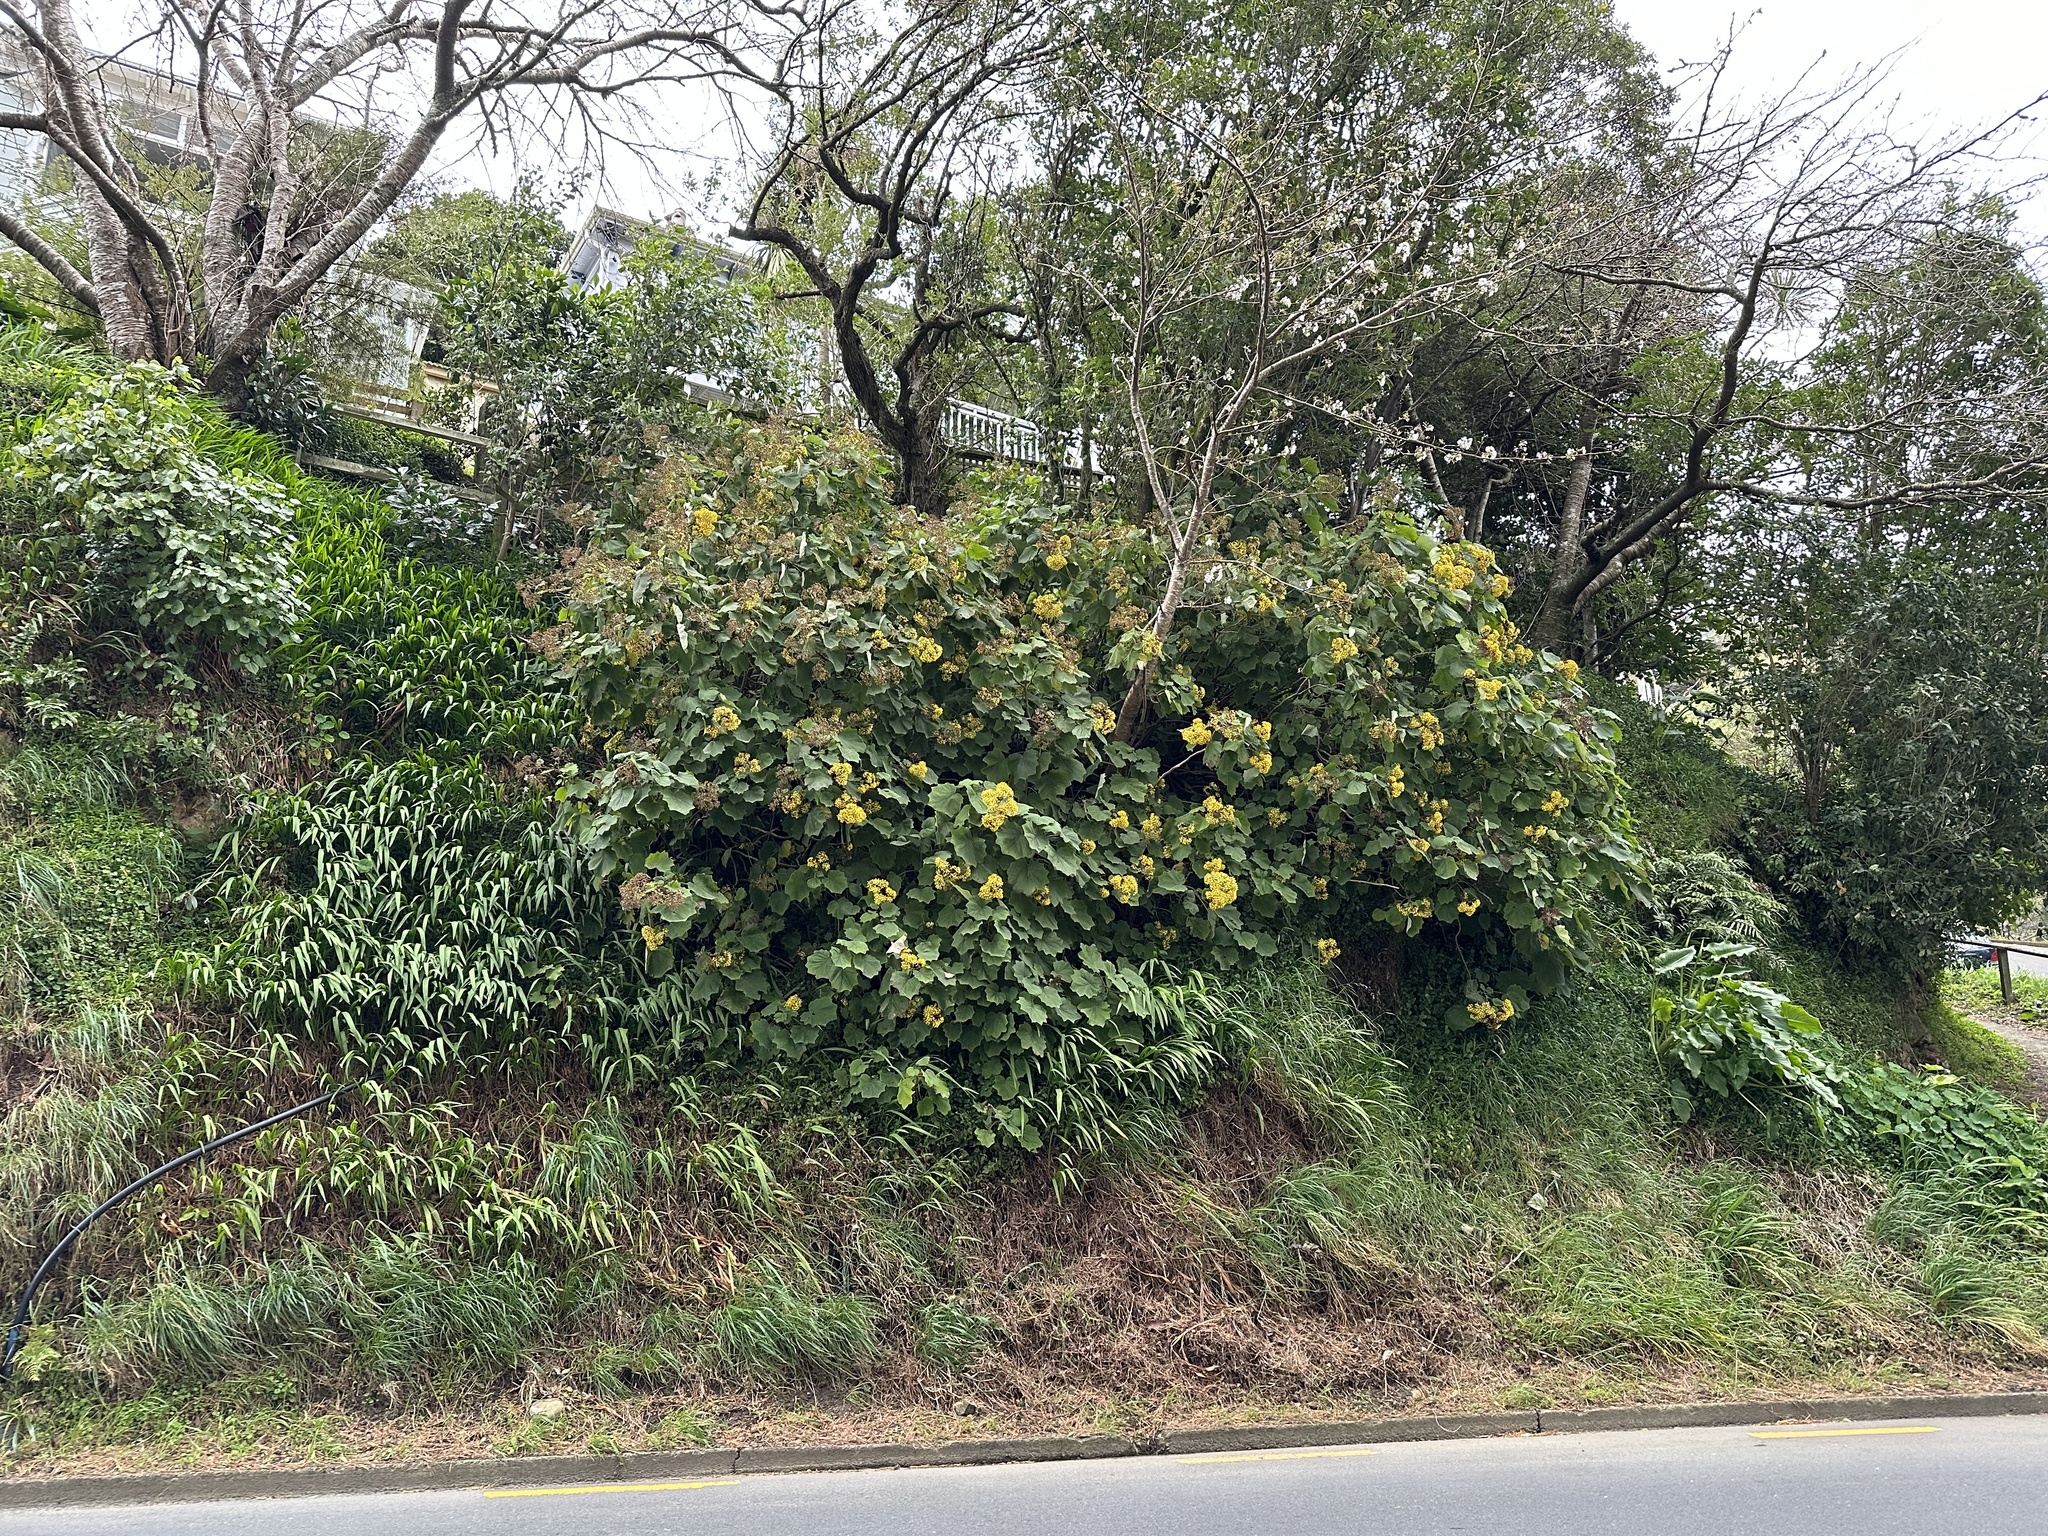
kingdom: Plantae
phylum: Tracheophyta
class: Magnoliopsida
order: Asterales
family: Asteraceae
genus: Roldana
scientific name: Roldana petasitis
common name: California-geranium
